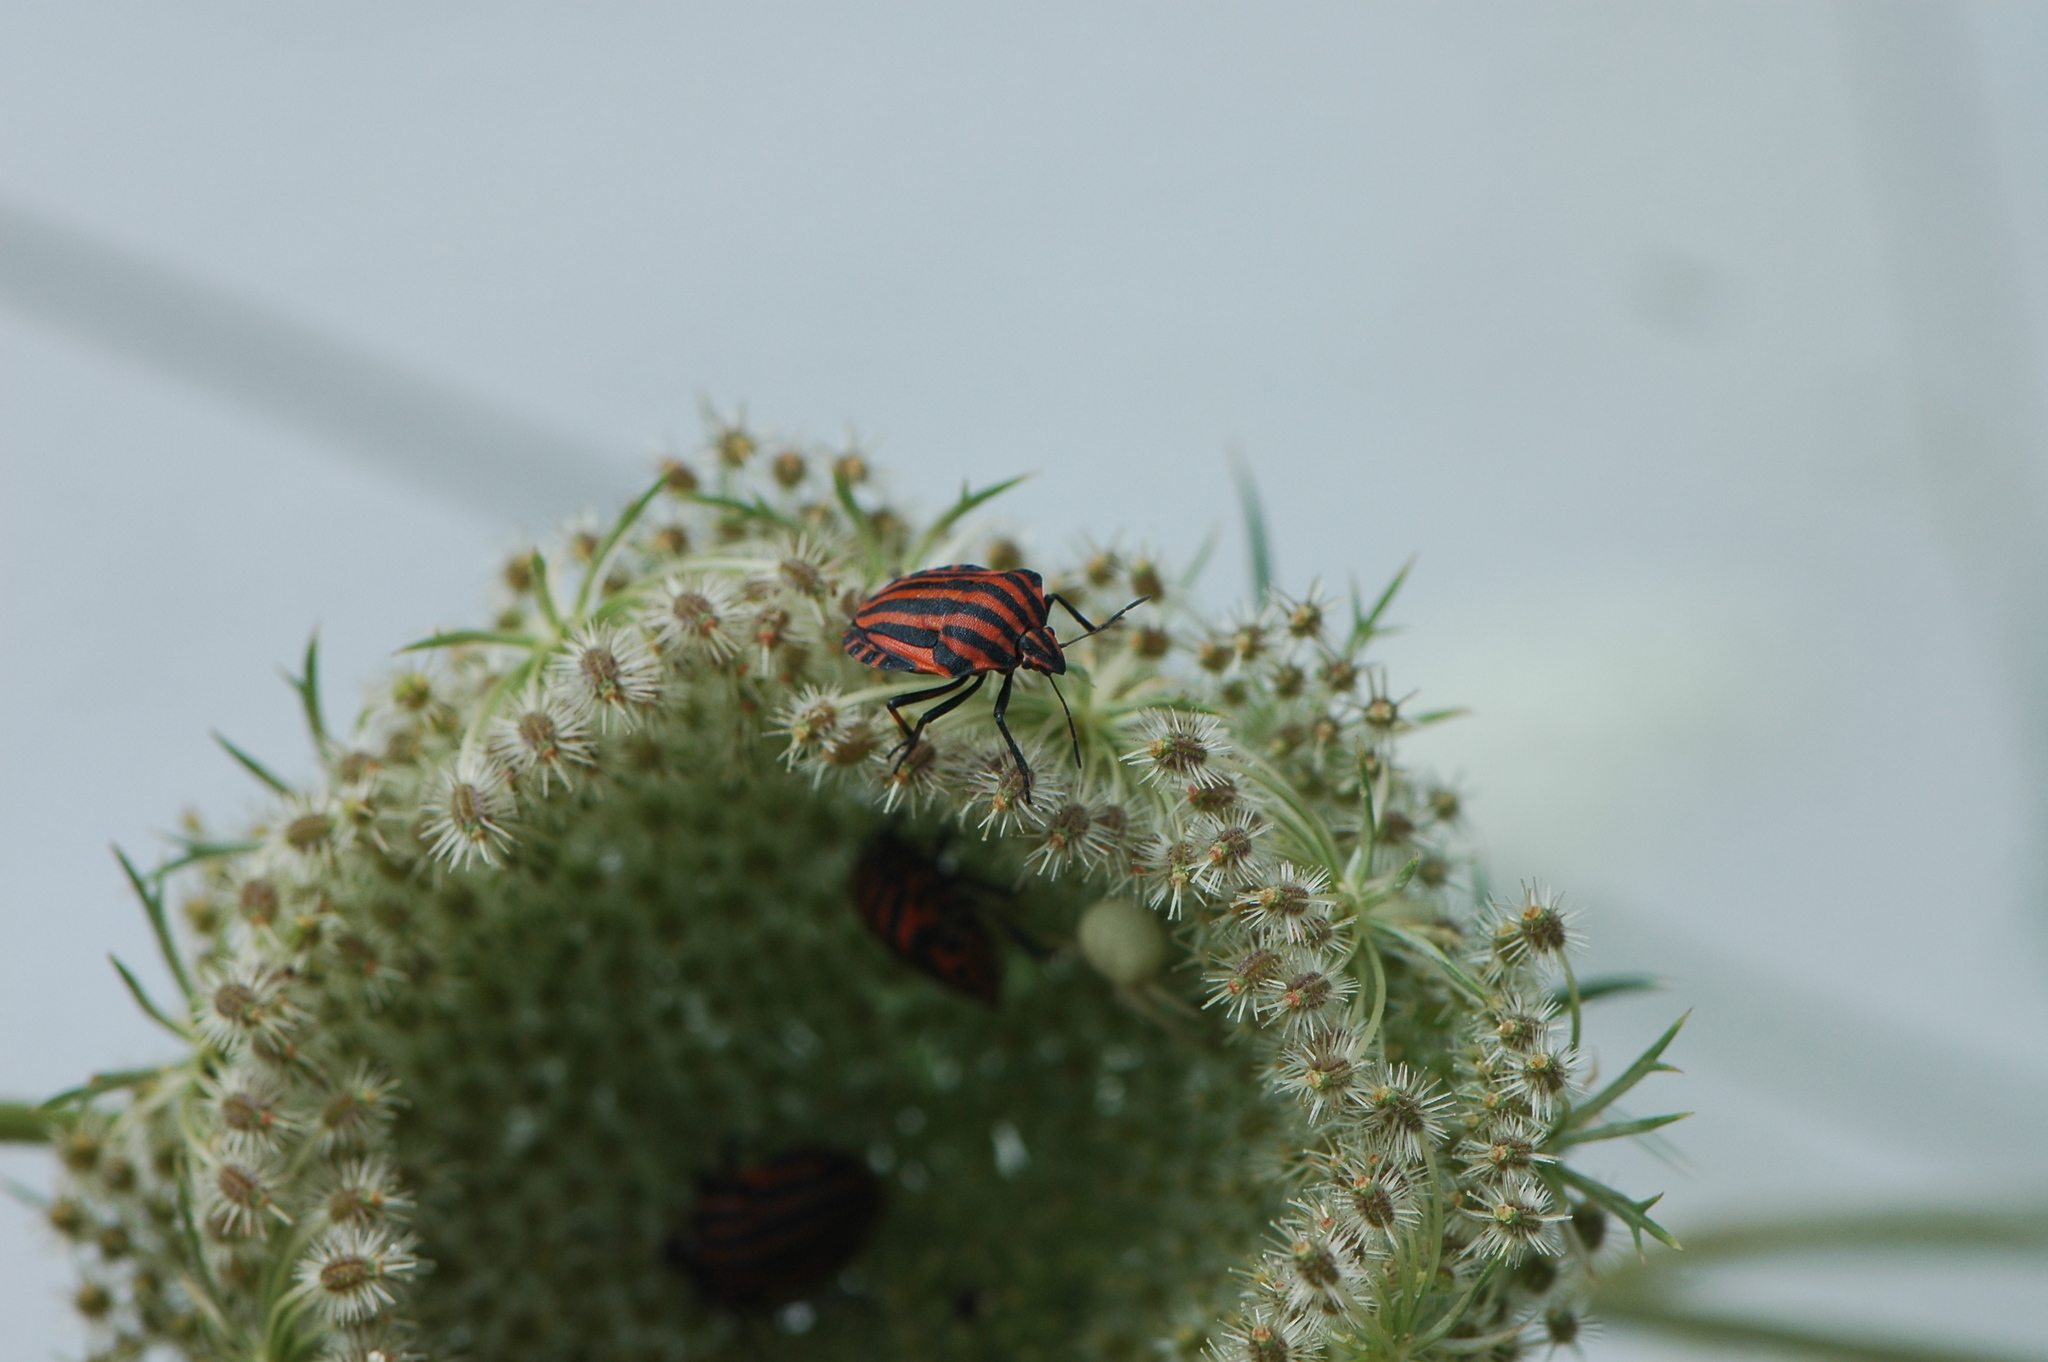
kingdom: Animalia
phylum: Arthropoda
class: Insecta
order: Hemiptera
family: Pentatomidae
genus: Graphosoma
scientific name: Graphosoma italicum
